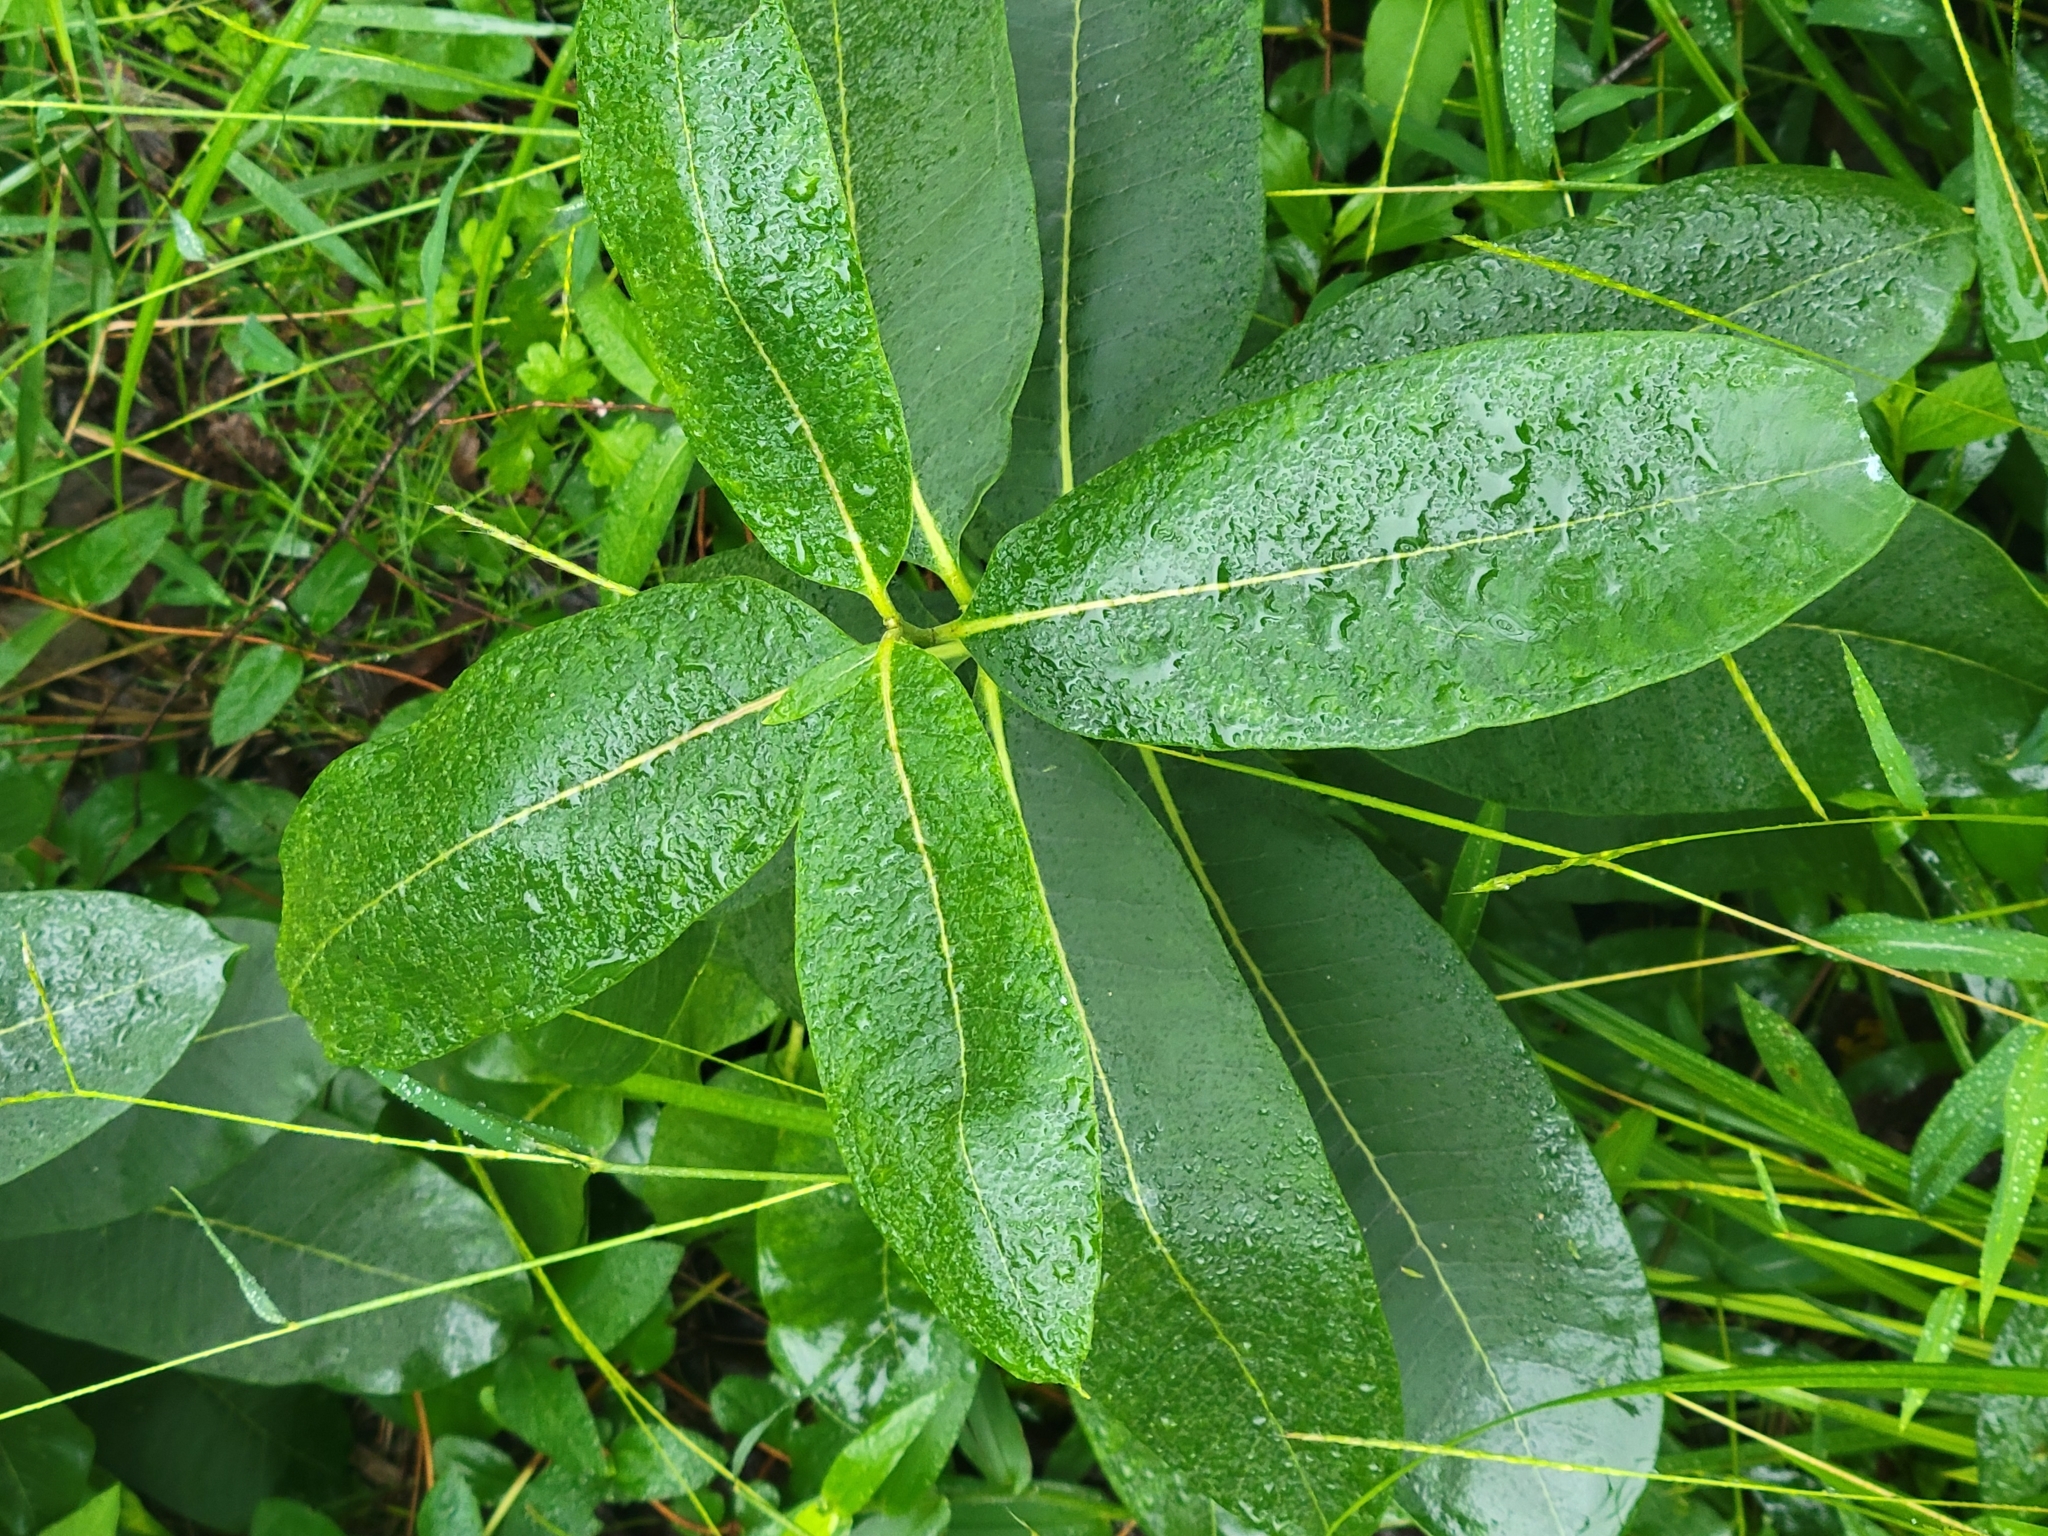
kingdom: Plantae
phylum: Tracheophyta
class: Magnoliopsida
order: Gentianales
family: Apocynaceae
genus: Asclepias
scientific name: Asclepias syriaca
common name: Common milkweed
